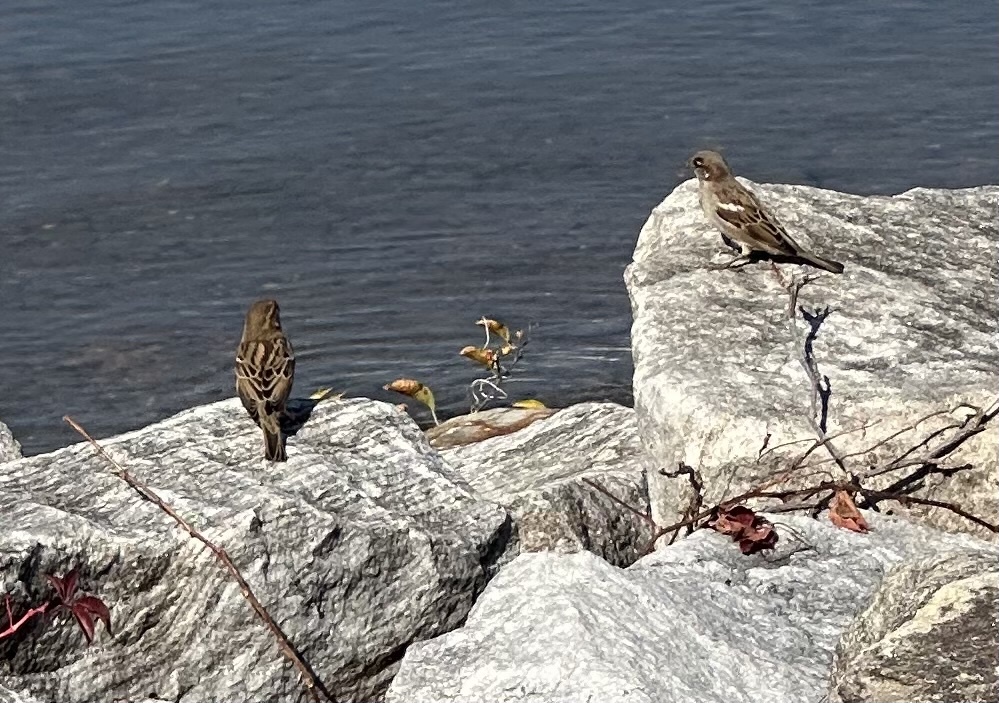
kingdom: Animalia
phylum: Chordata
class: Aves
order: Passeriformes
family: Passeridae
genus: Passer
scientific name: Passer domesticus
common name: House sparrow
